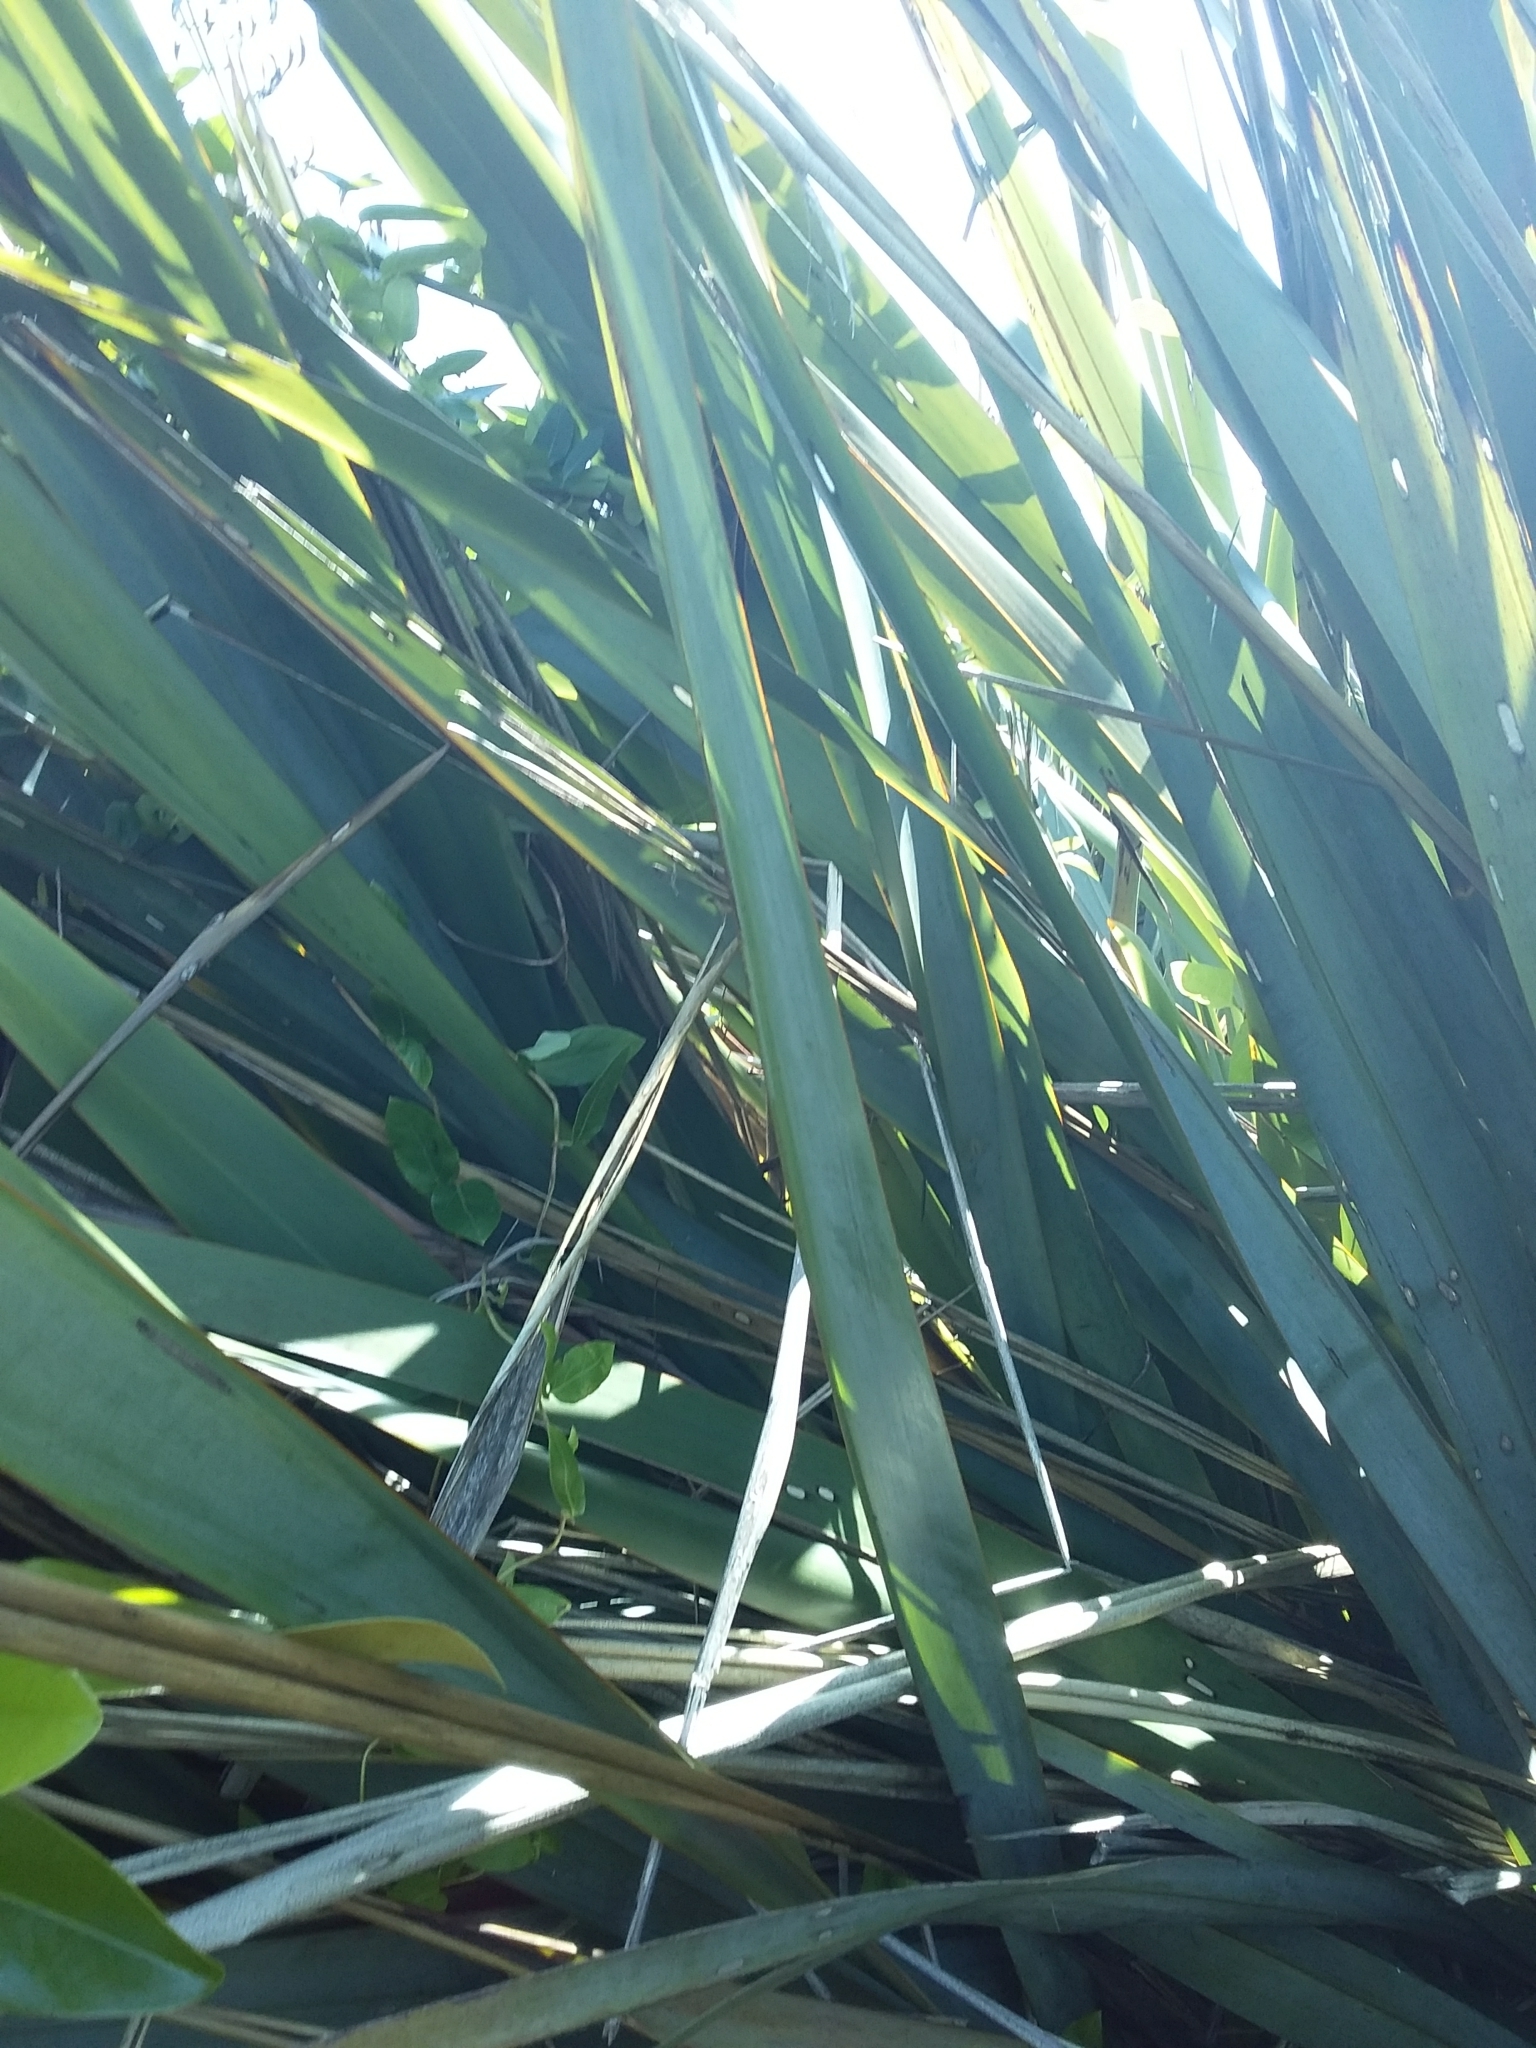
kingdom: Plantae
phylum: Tracheophyta
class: Liliopsida
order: Asparagales
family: Asphodelaceae
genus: Phormium
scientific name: Phormium tenax
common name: New zealand flax
